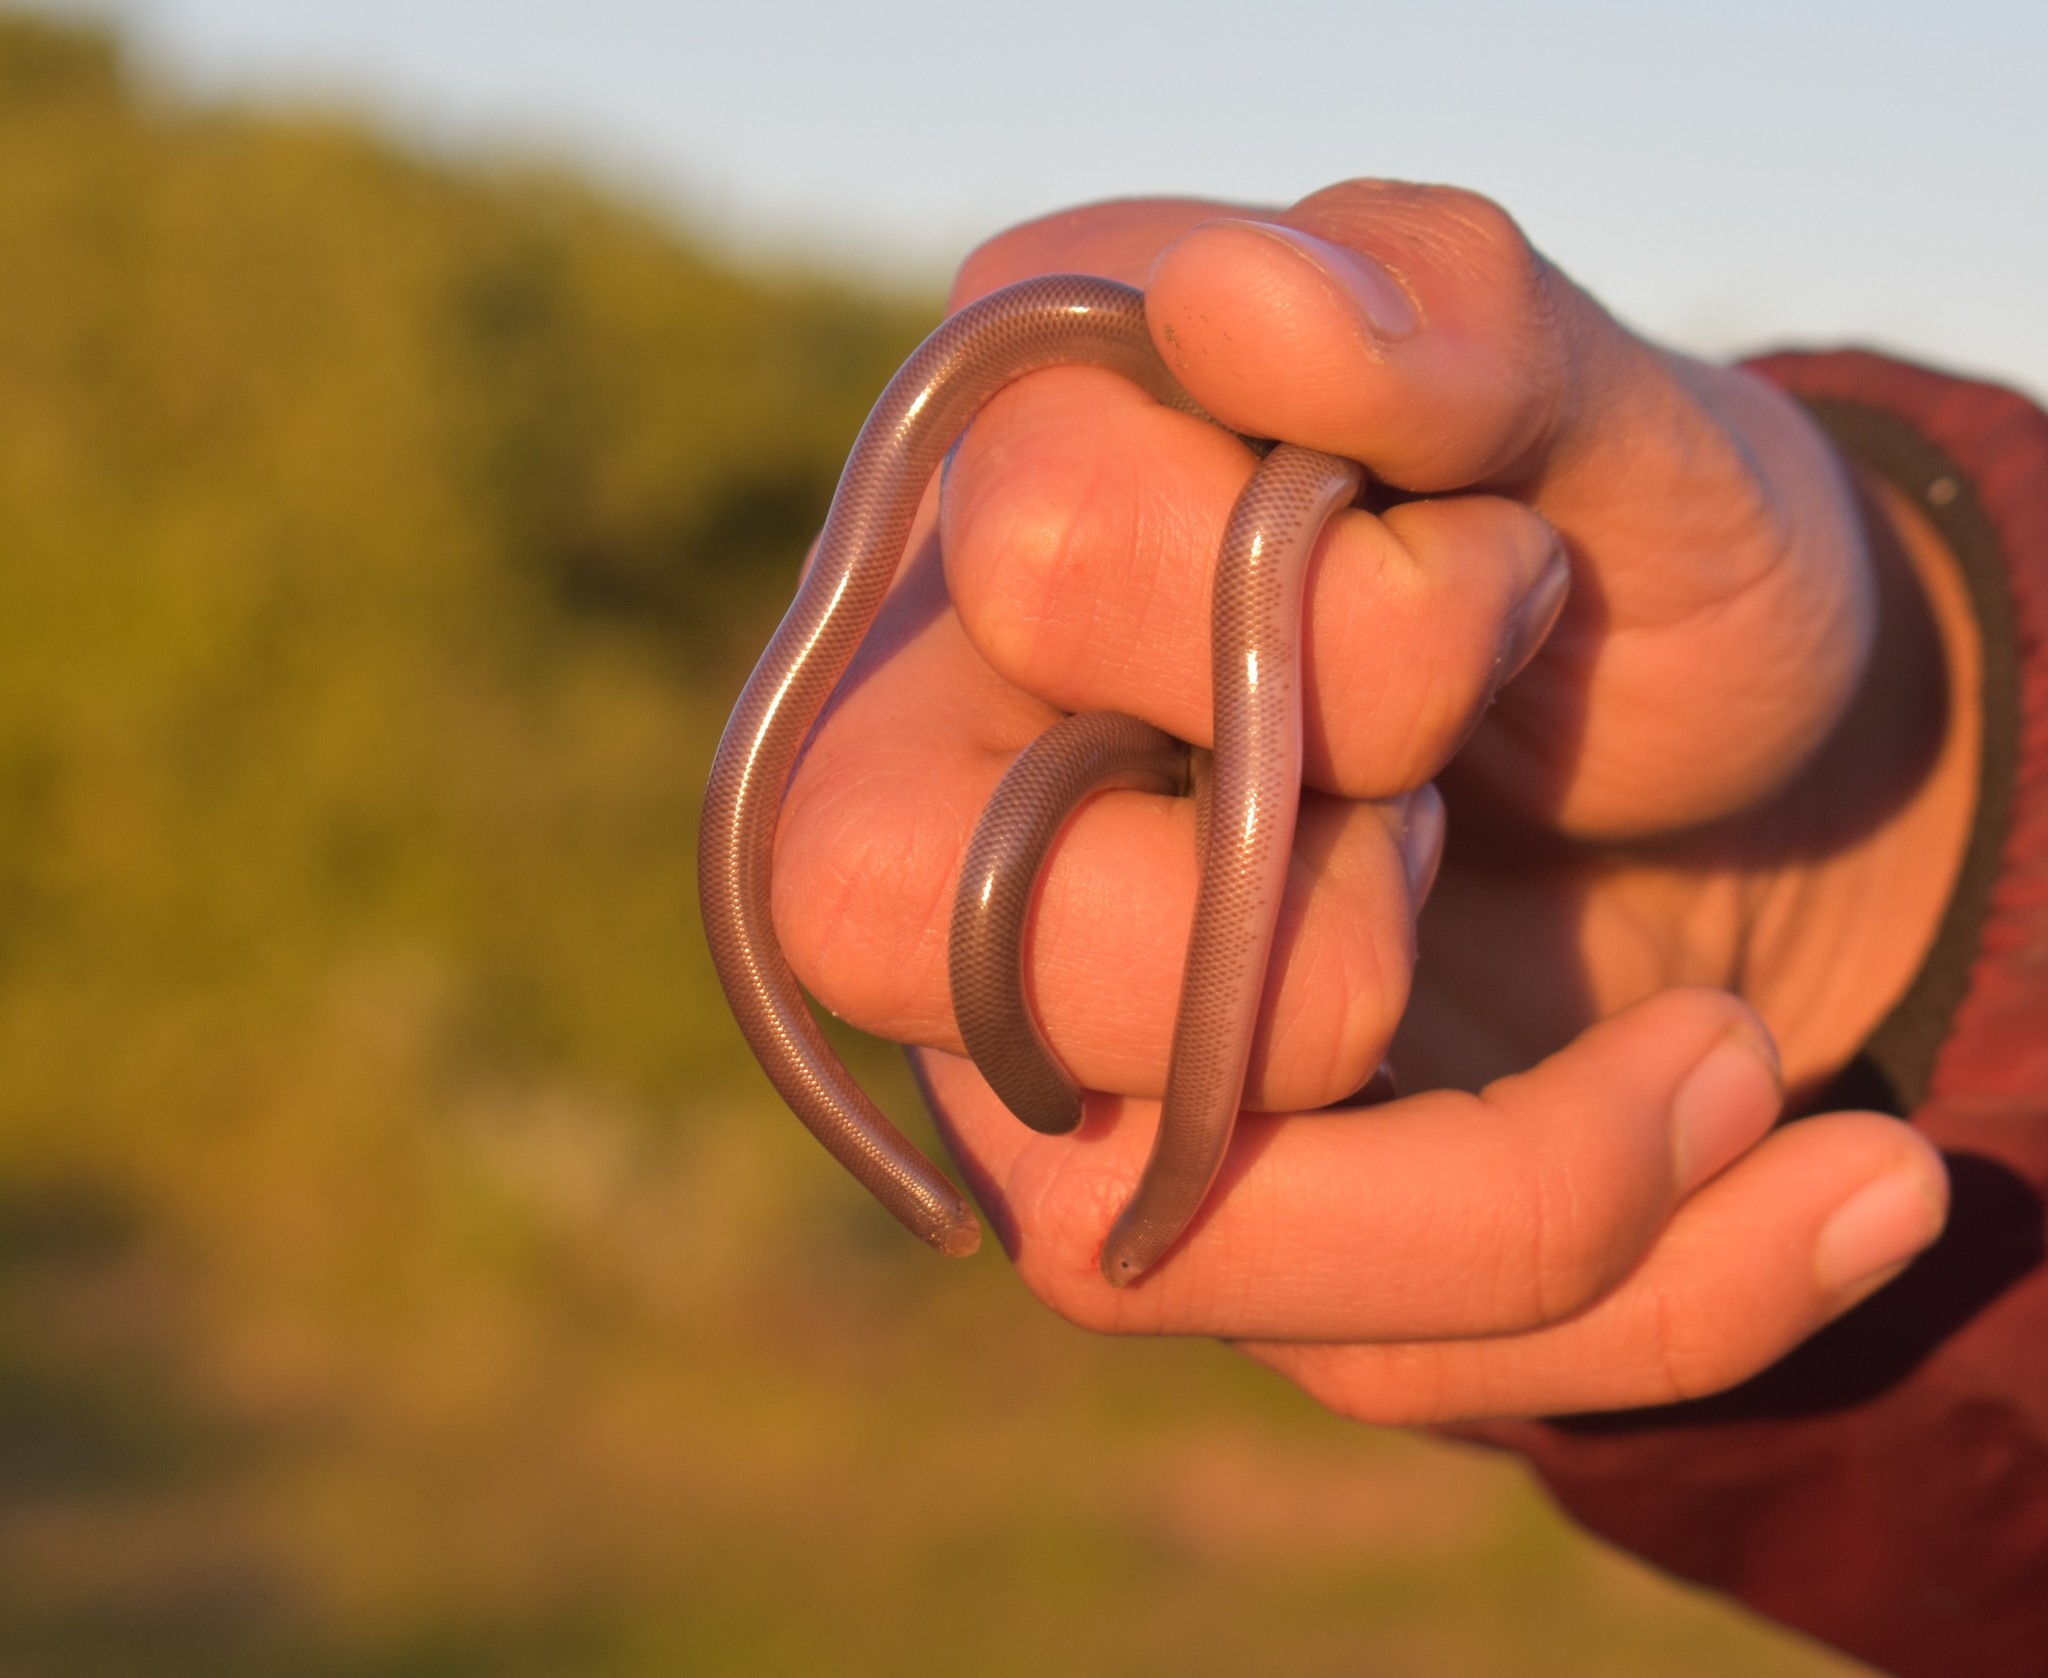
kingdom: Animalia
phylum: Chordata
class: Squamata
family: Typhlopidae
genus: Rhinotyphlops
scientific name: Rhinotyphlops lalandei
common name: Delalande's beaked blind snake
